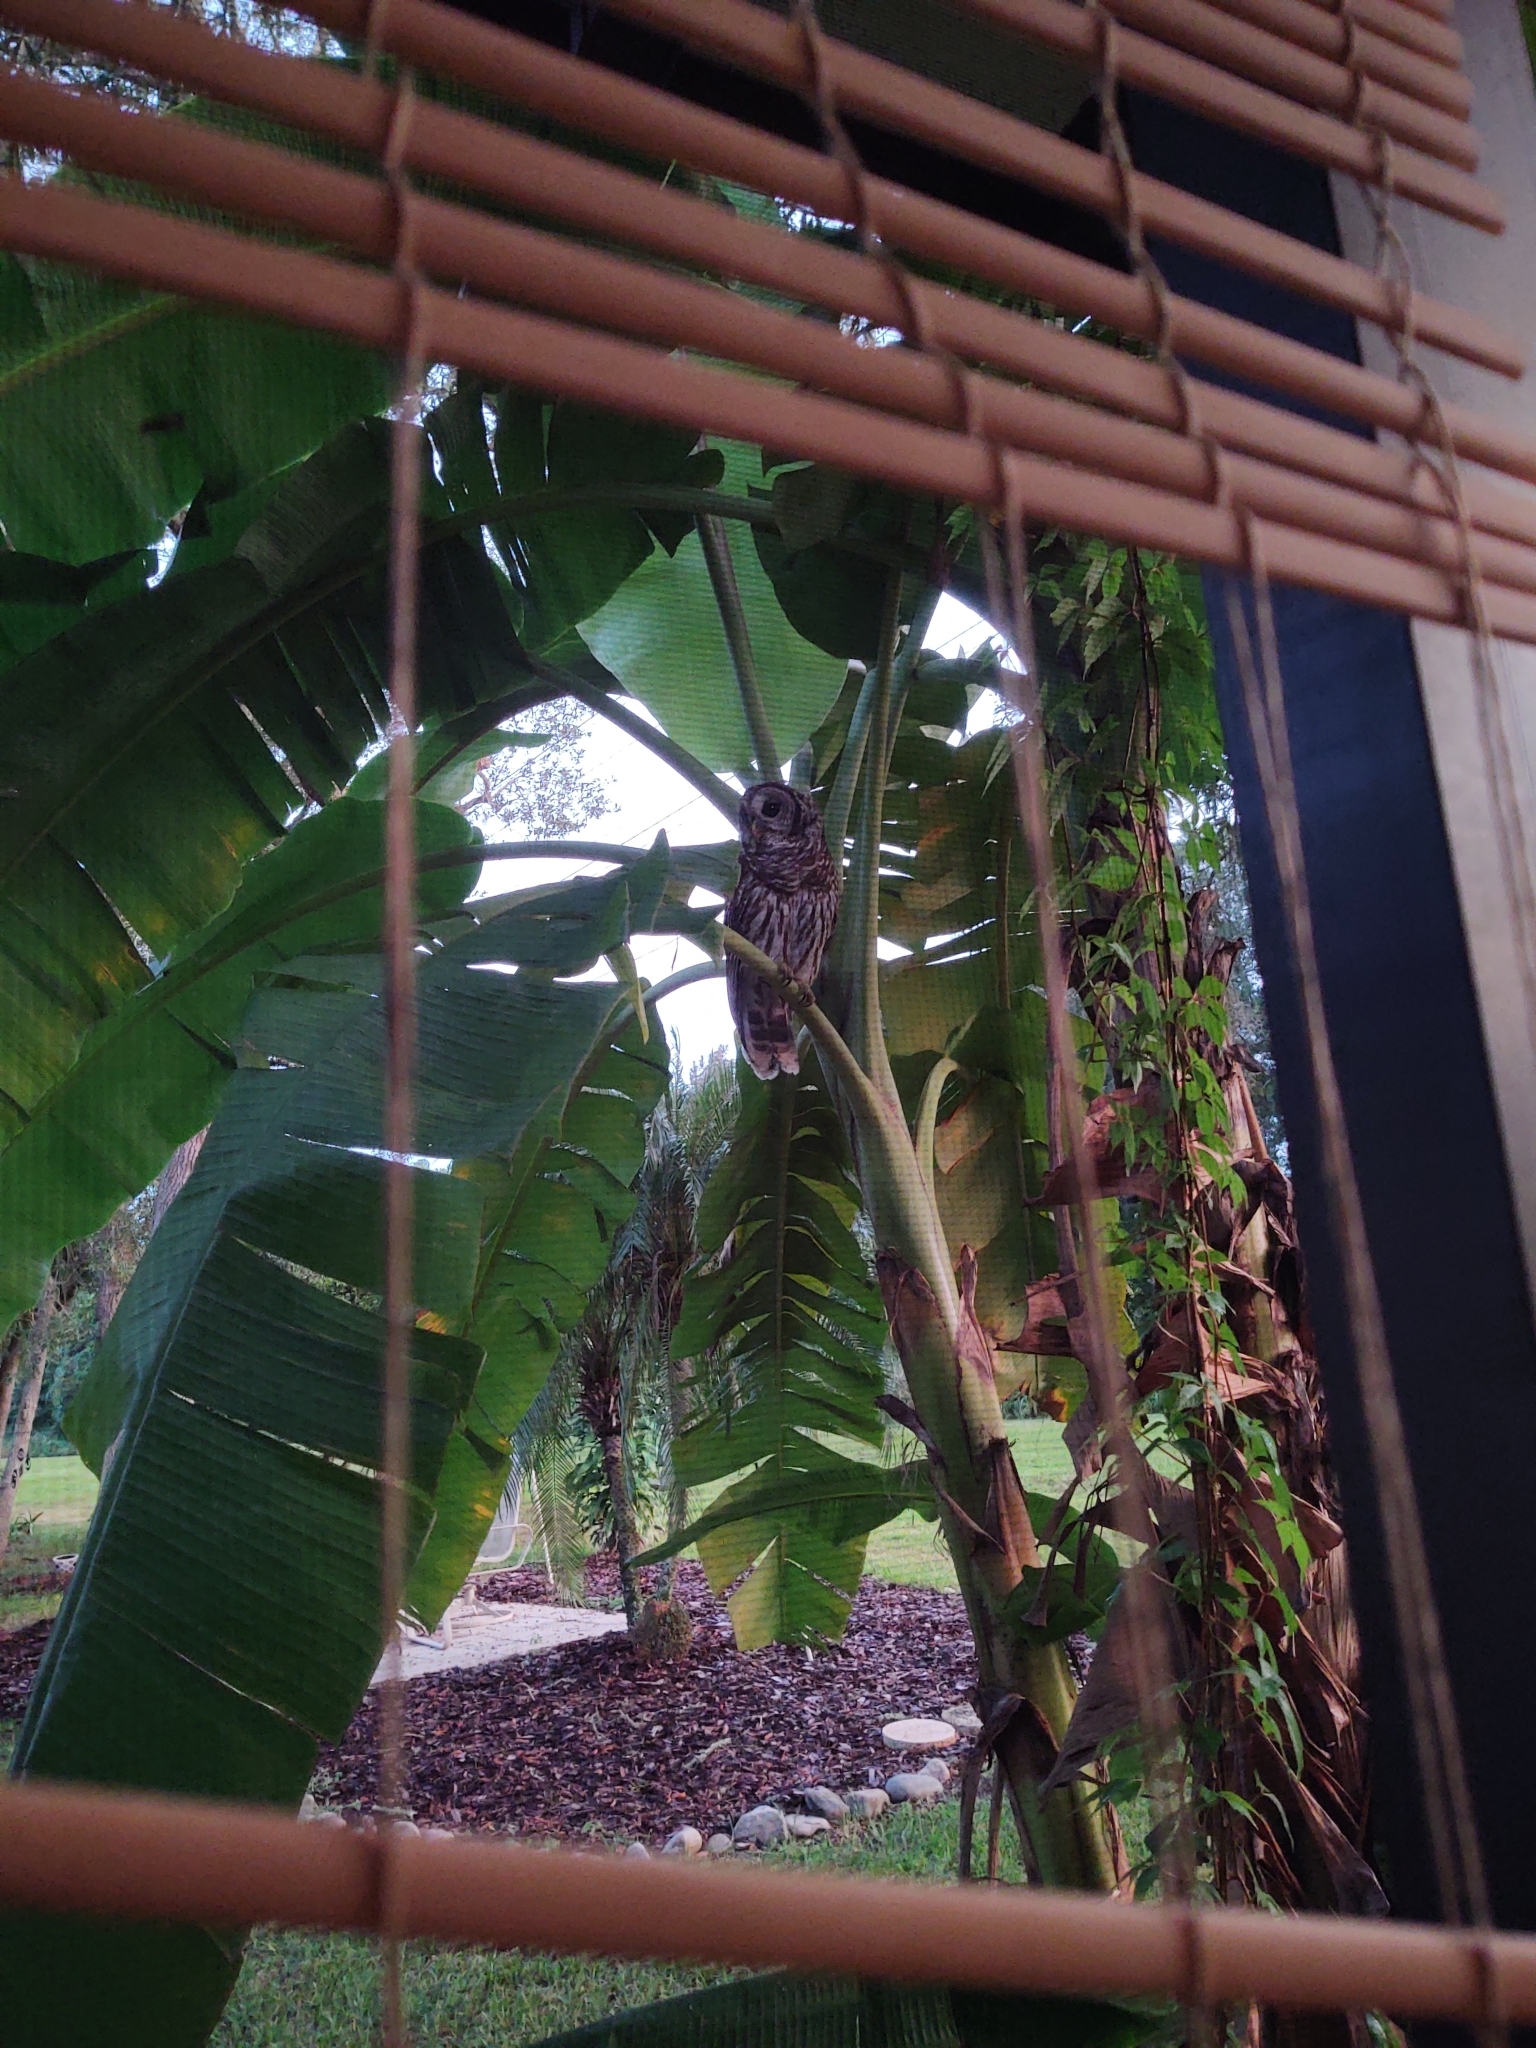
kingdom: Animalia
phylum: Chordata
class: Aves
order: Strigiformes
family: Strigidae
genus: Strix
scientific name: Strix varia
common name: Barred owl
